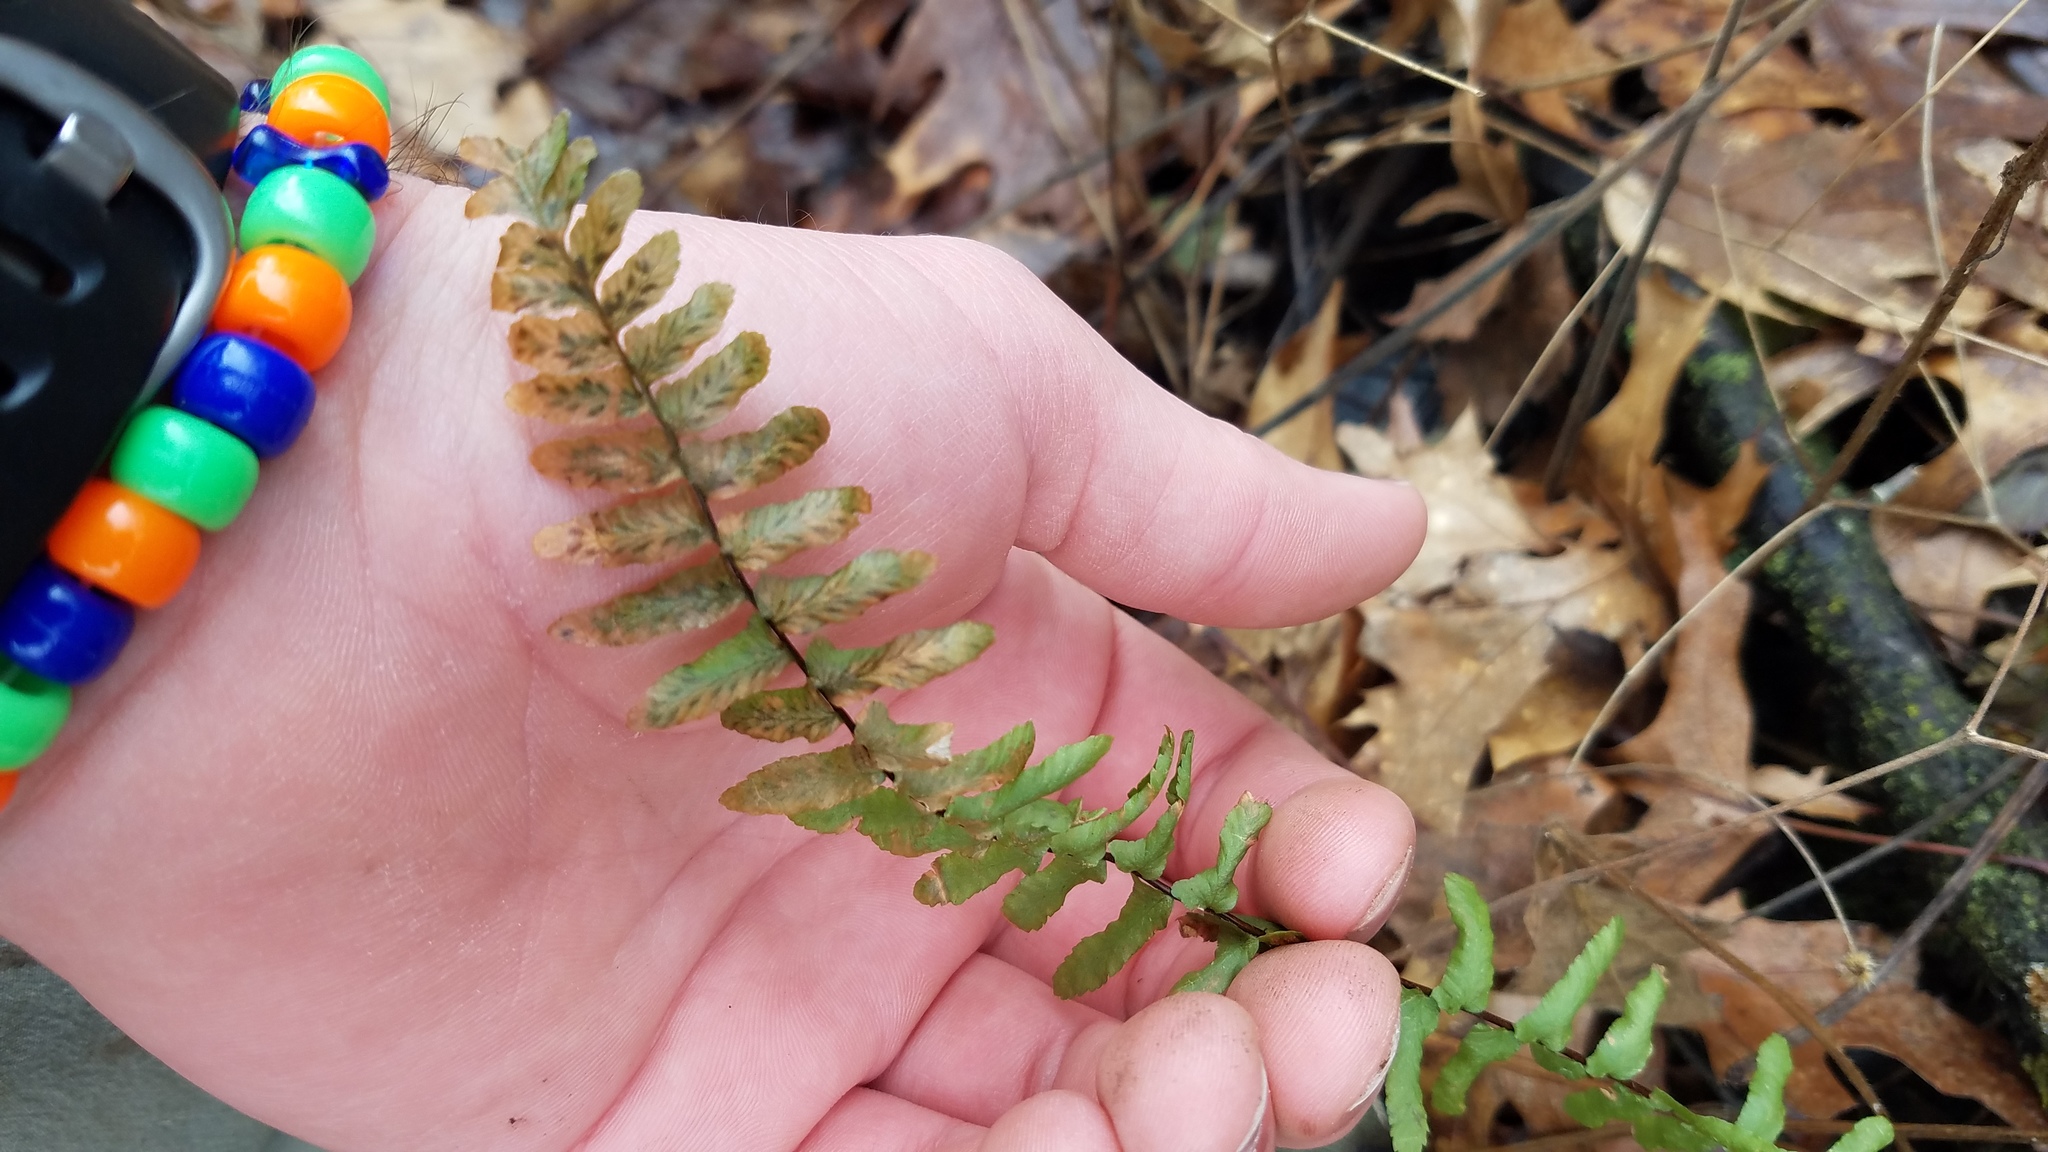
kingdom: Plantae
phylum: Tracheophyta
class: Polypodiopsida
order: Polypodiales
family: Aspleniaceae
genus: Asplenium
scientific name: Asplenium platyneuron
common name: Ebony spleenwort
